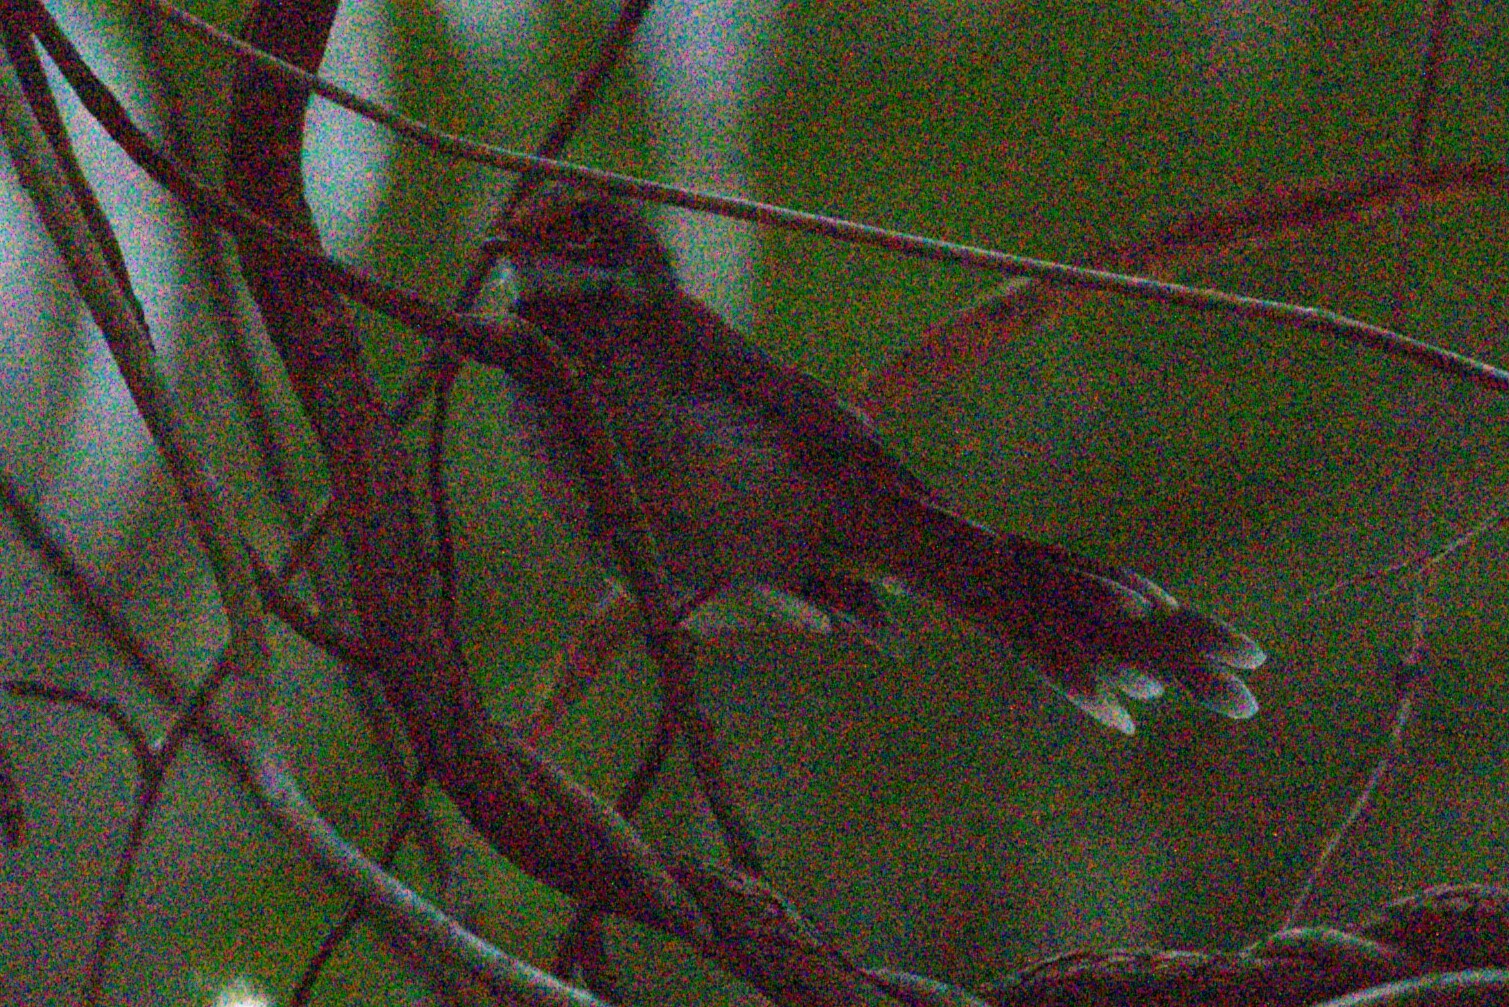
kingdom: Animalia
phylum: Chordata
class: Aves
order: Passeriformes
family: Rhipiduridae
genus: Rhipidura
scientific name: Rhipidura rufifrons
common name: Rufous fantail
